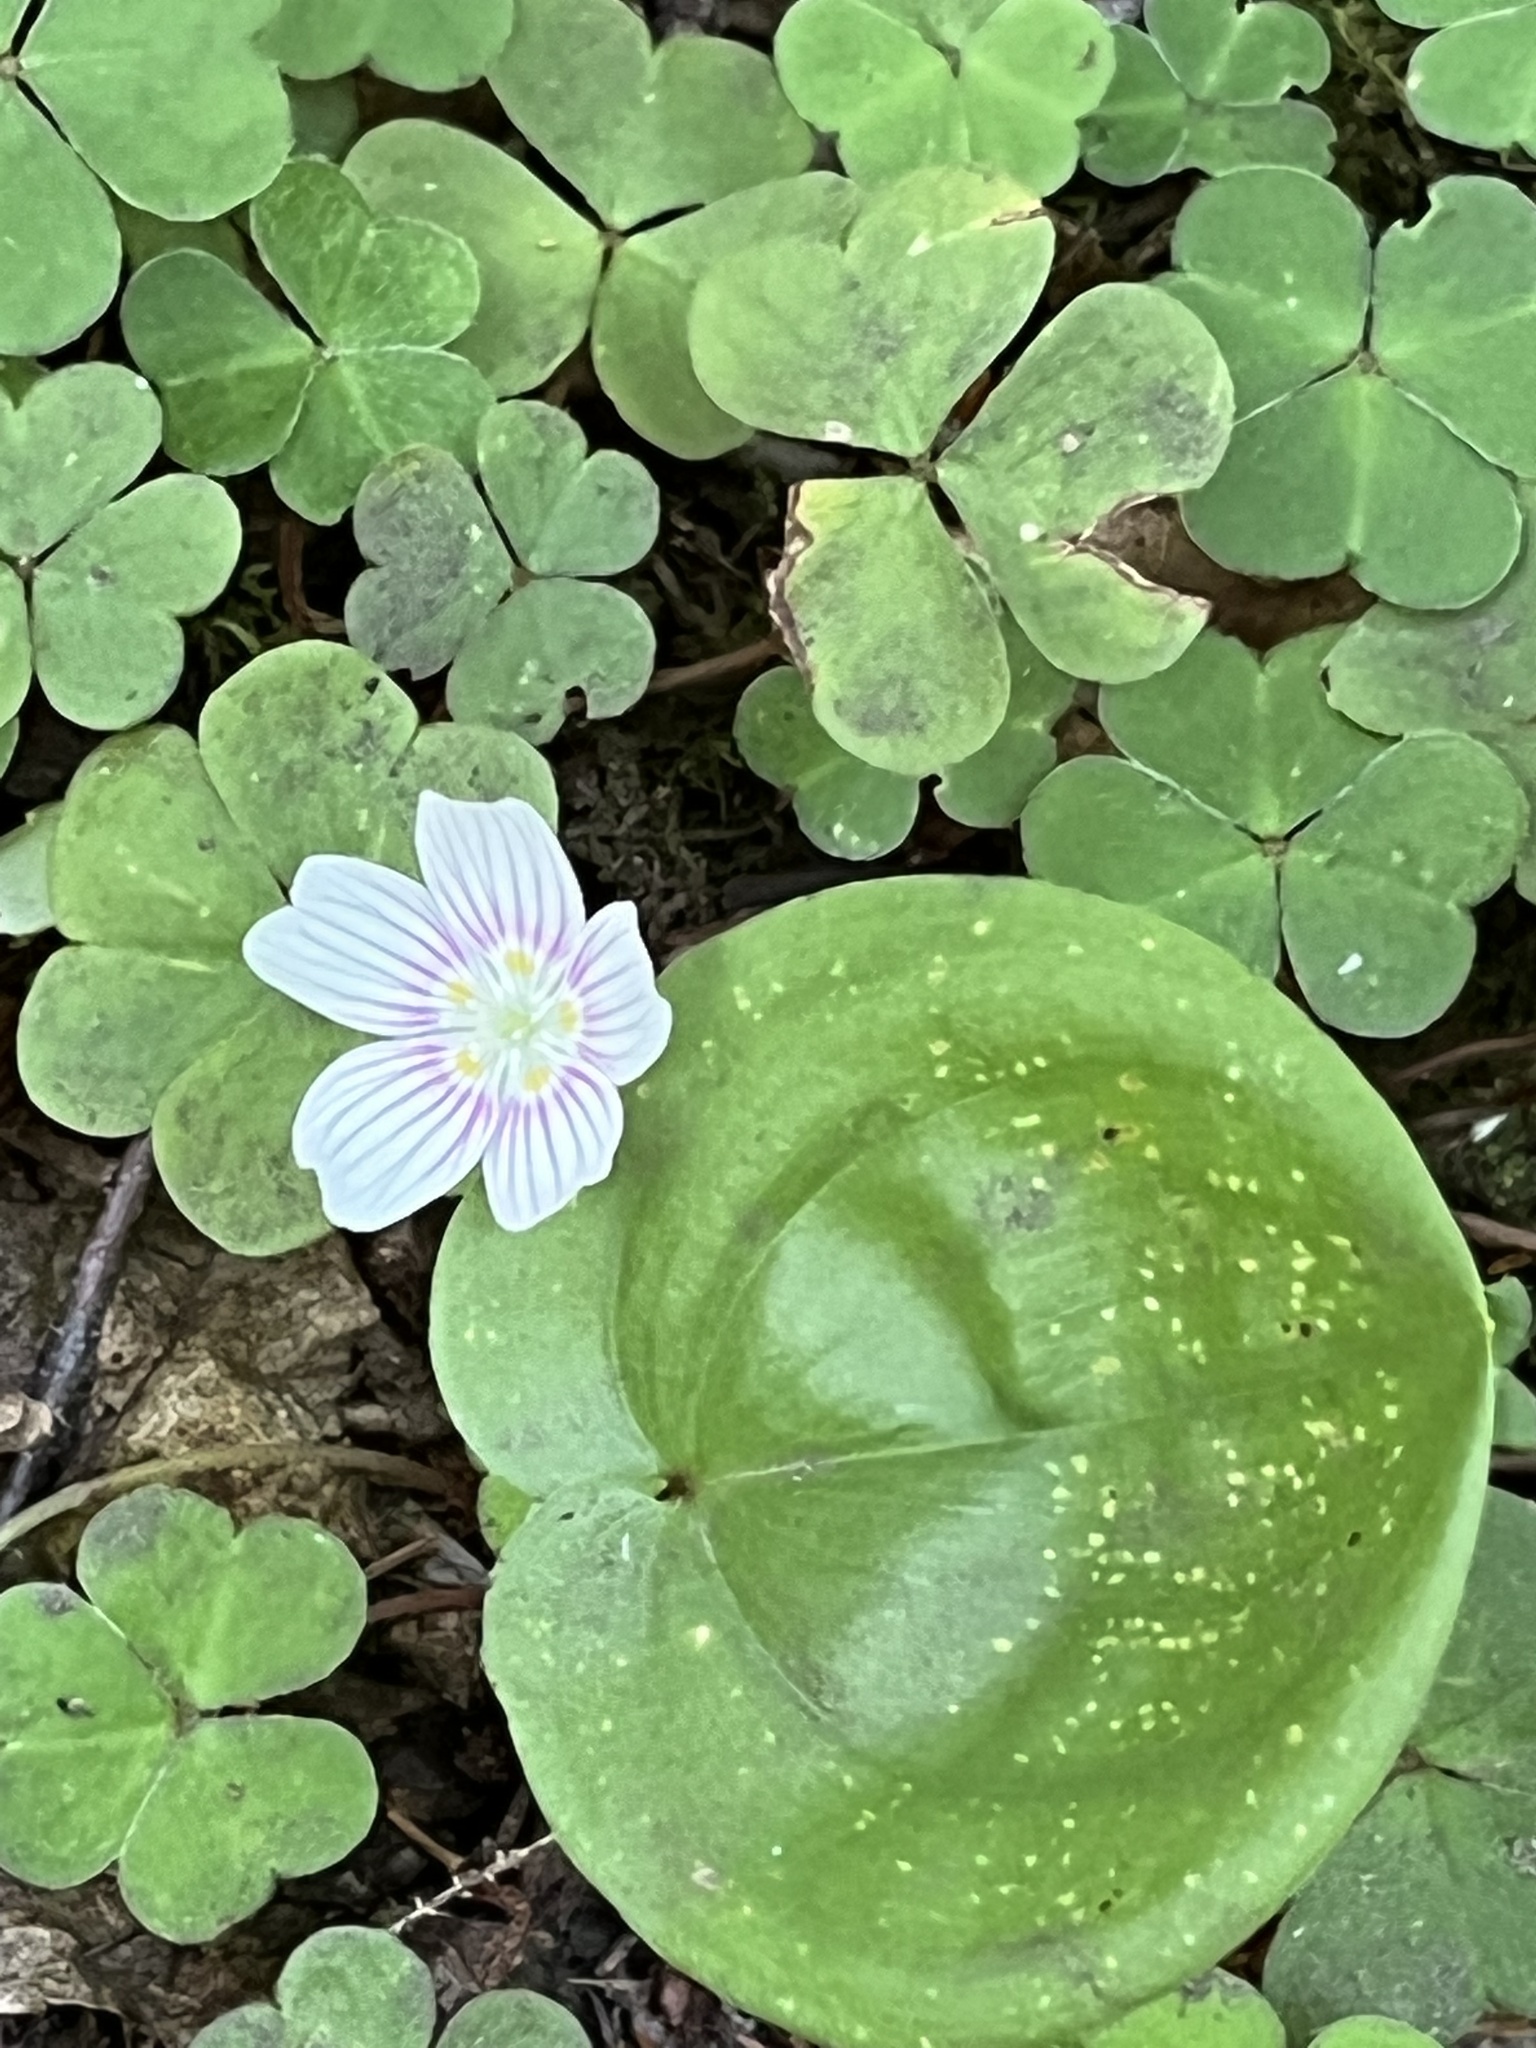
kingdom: Plantae
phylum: Tracheophyta
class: Magnoliopsida
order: Oxalidales
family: Oxalidaceae
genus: Oxalis
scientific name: Oxalis montana
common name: American wood-sorrel
